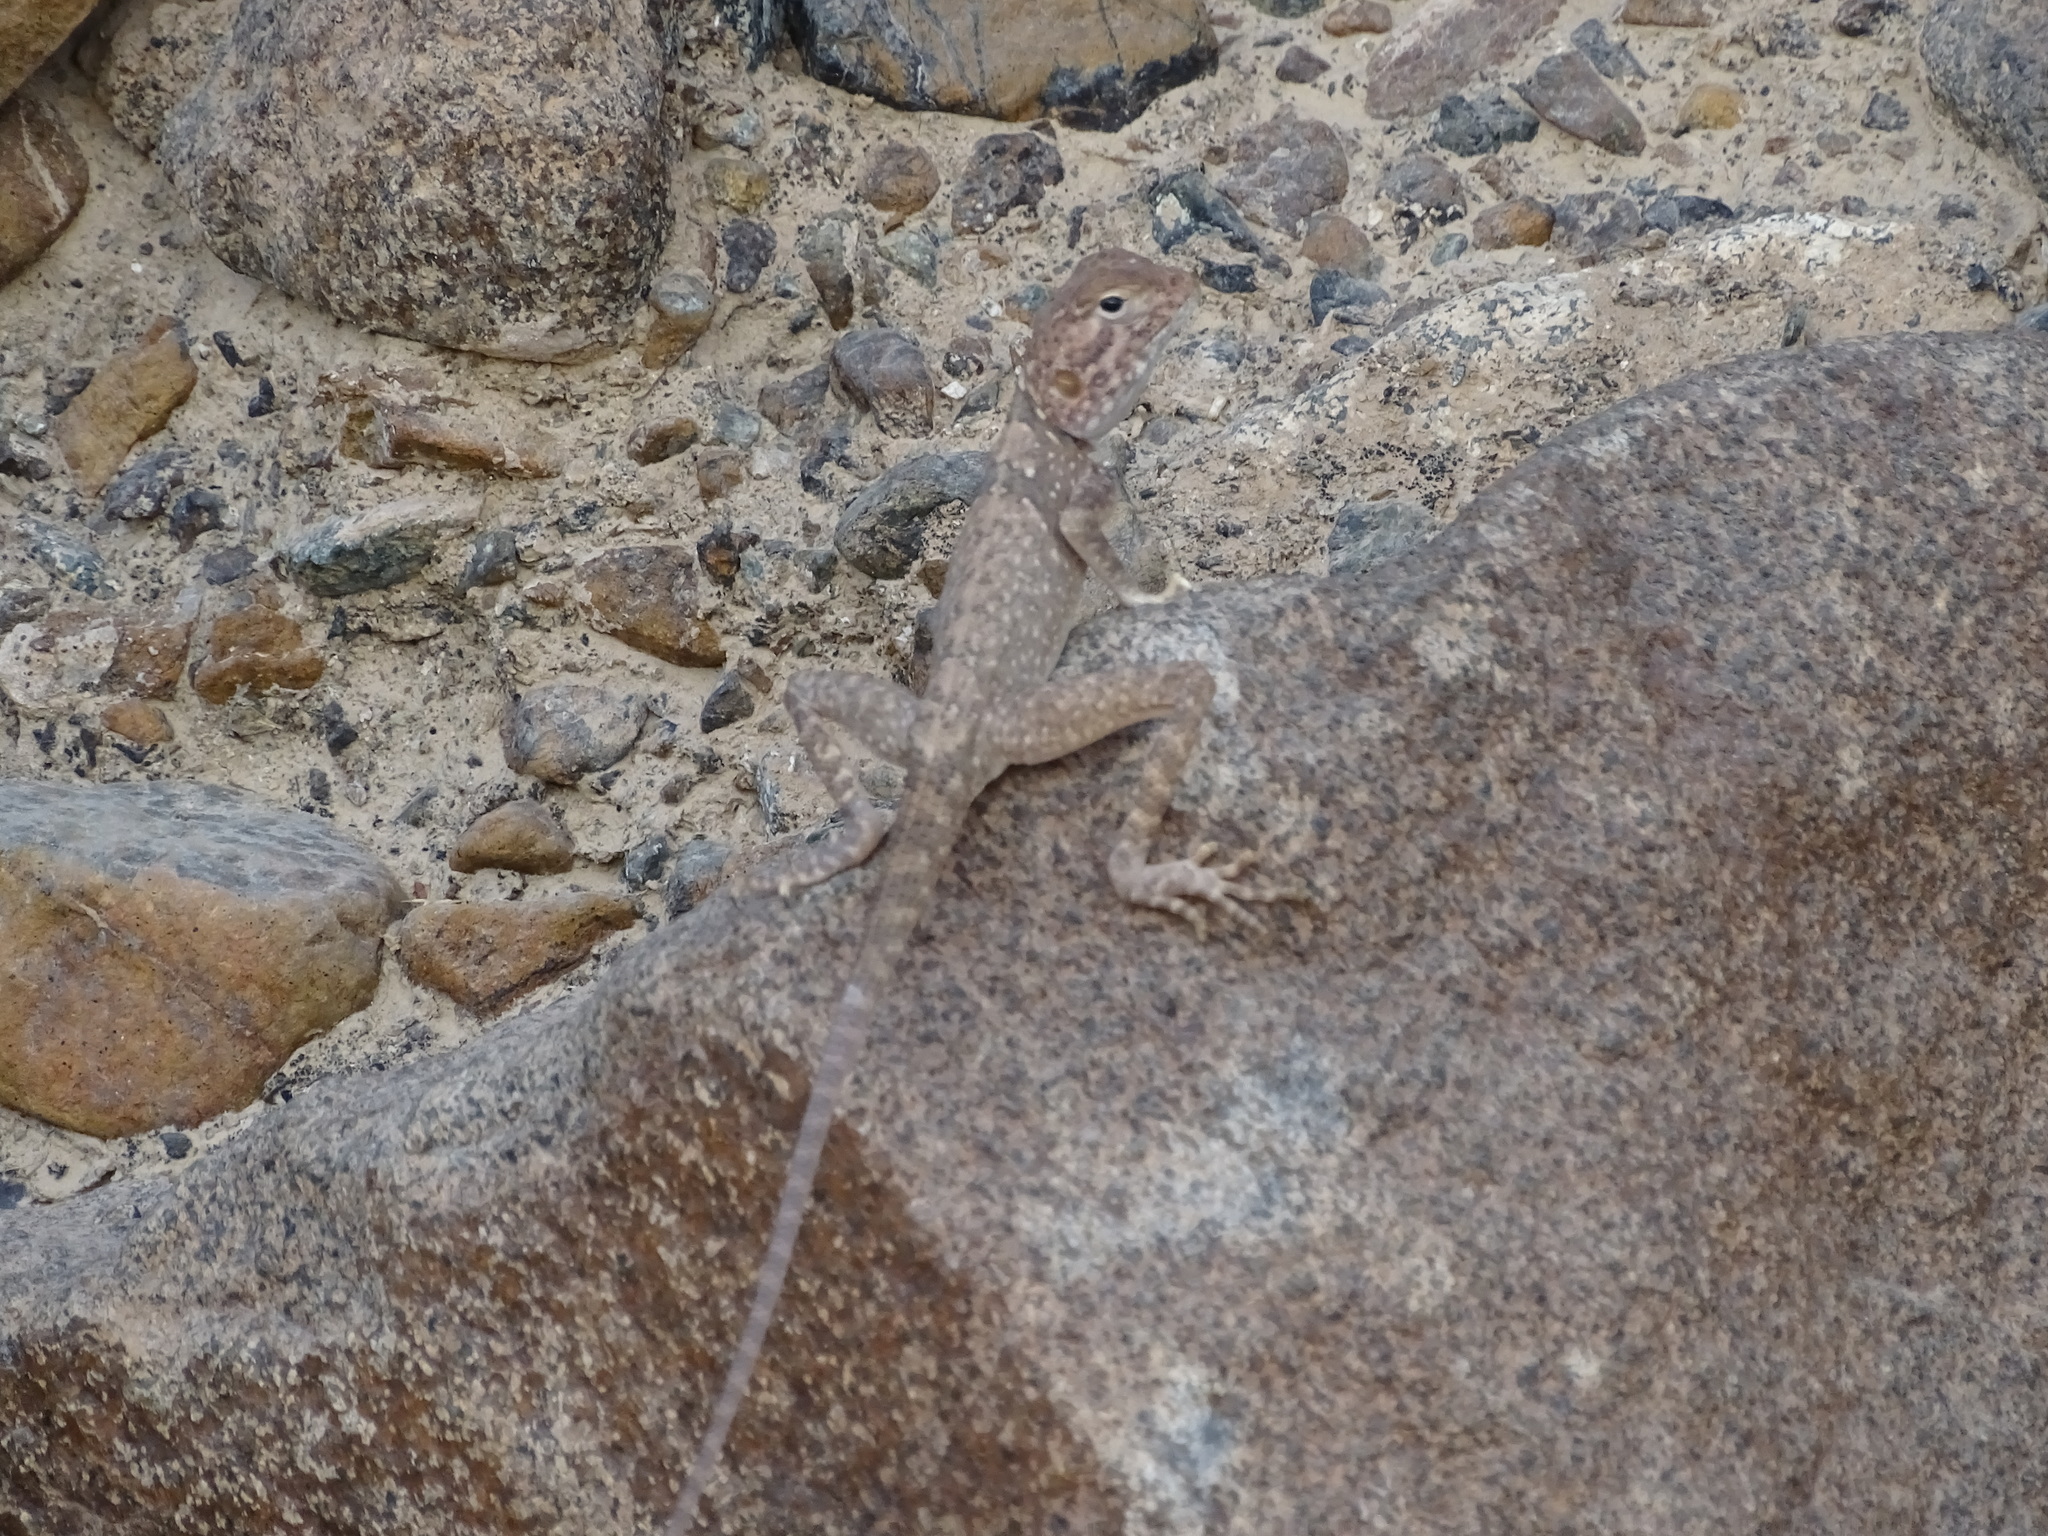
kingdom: Animalia
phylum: Chordata
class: Squamata
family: Agamidae
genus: Pseudotrapelus
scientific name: Pseudotrapelus jensvindumi
